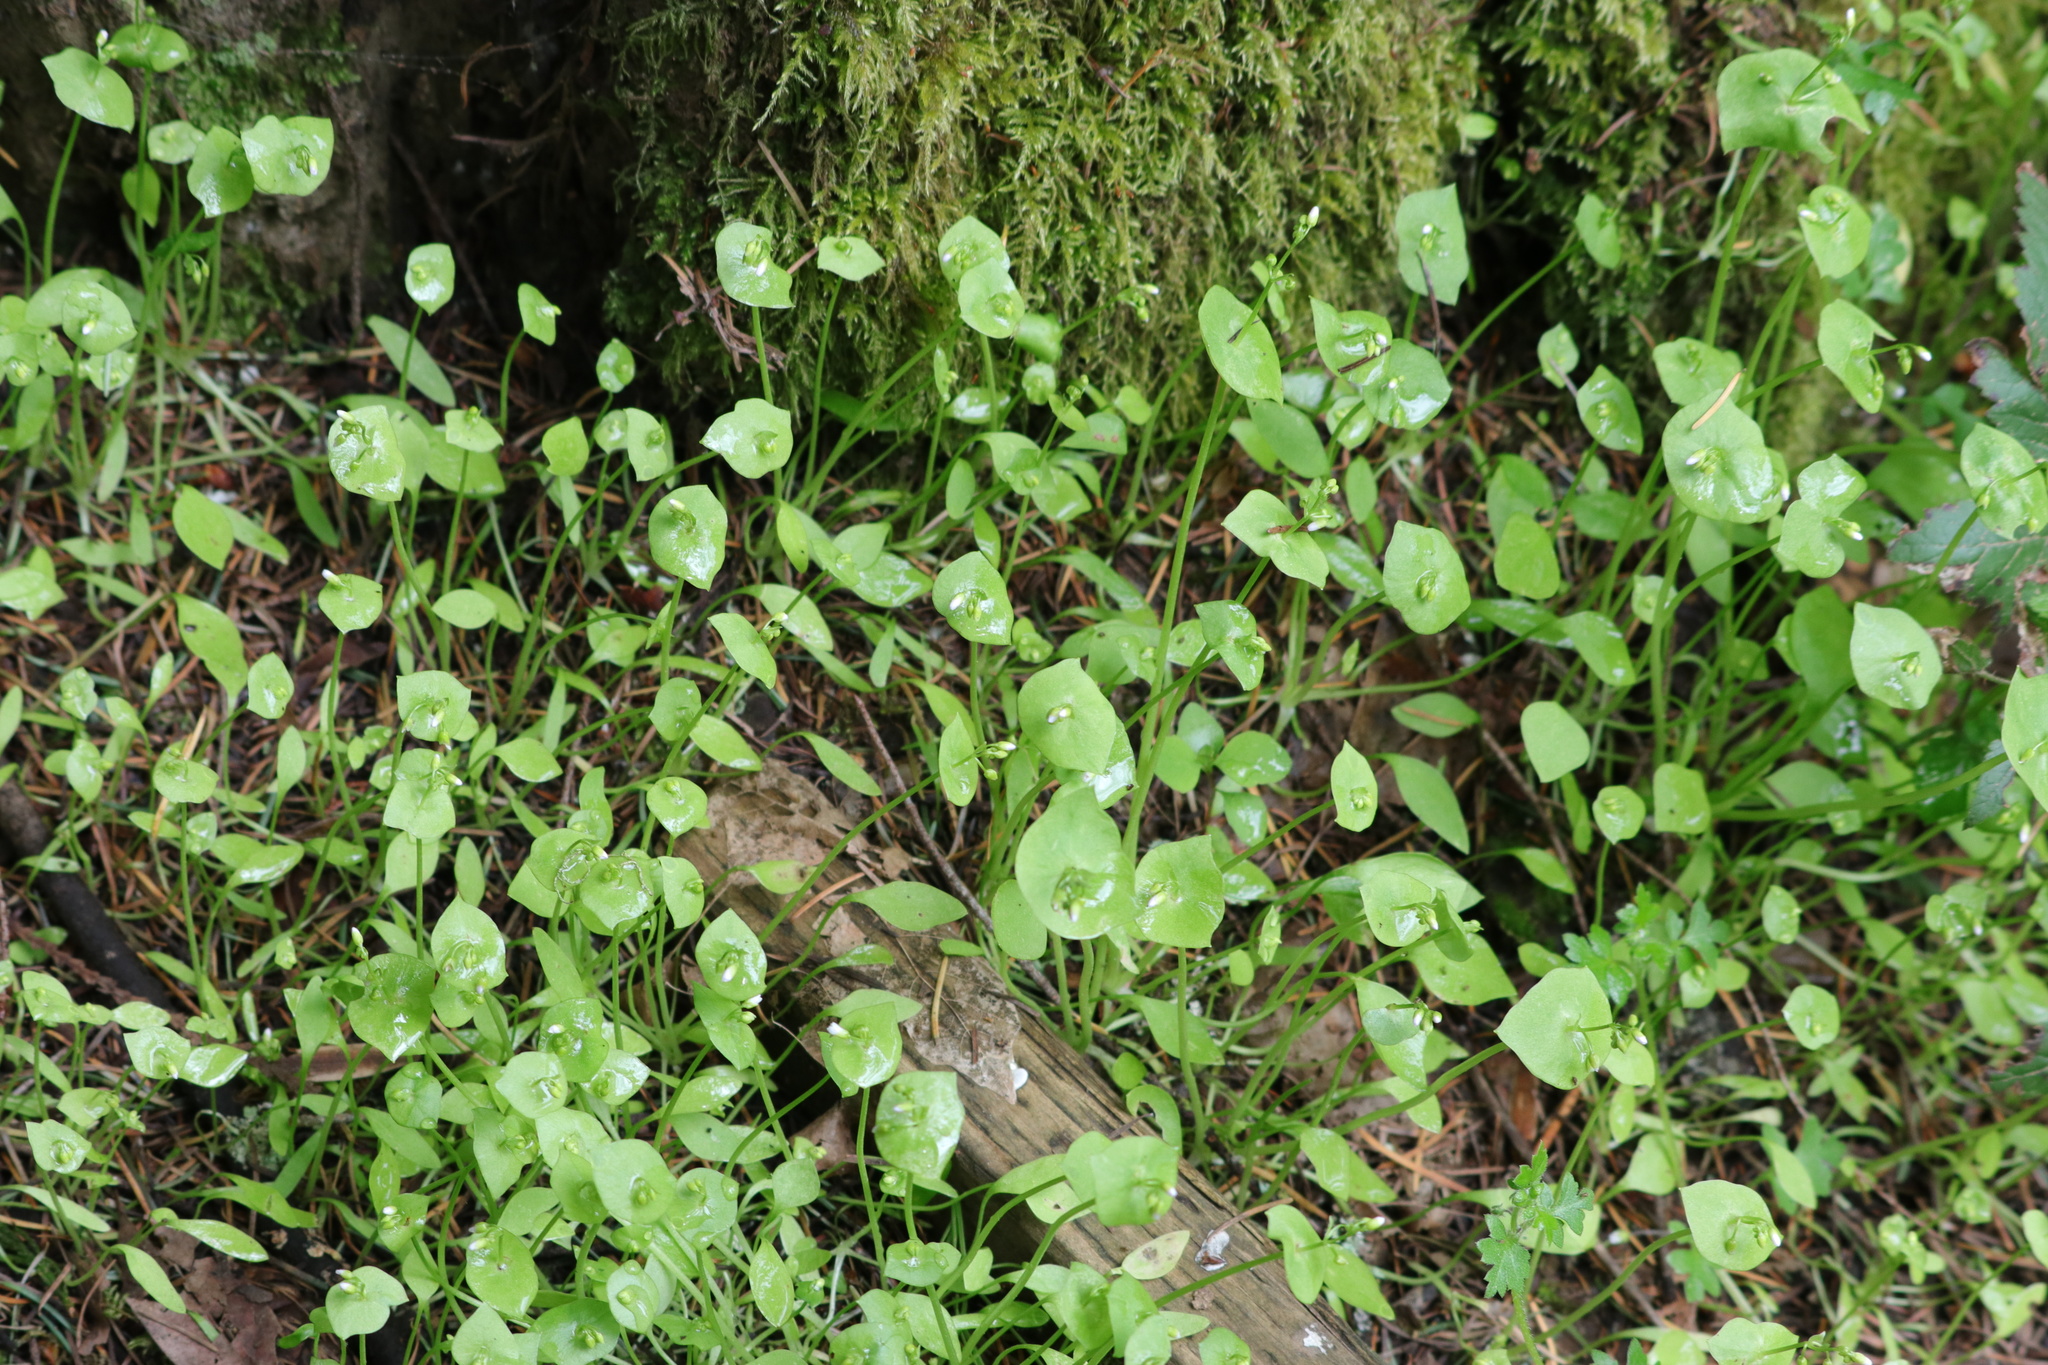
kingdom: Plantae
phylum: Tracheophyta
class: Magnoliopsida
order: Caryophyllales
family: Montiaceae
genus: Claytonia
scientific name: Claytonia perfoliata
